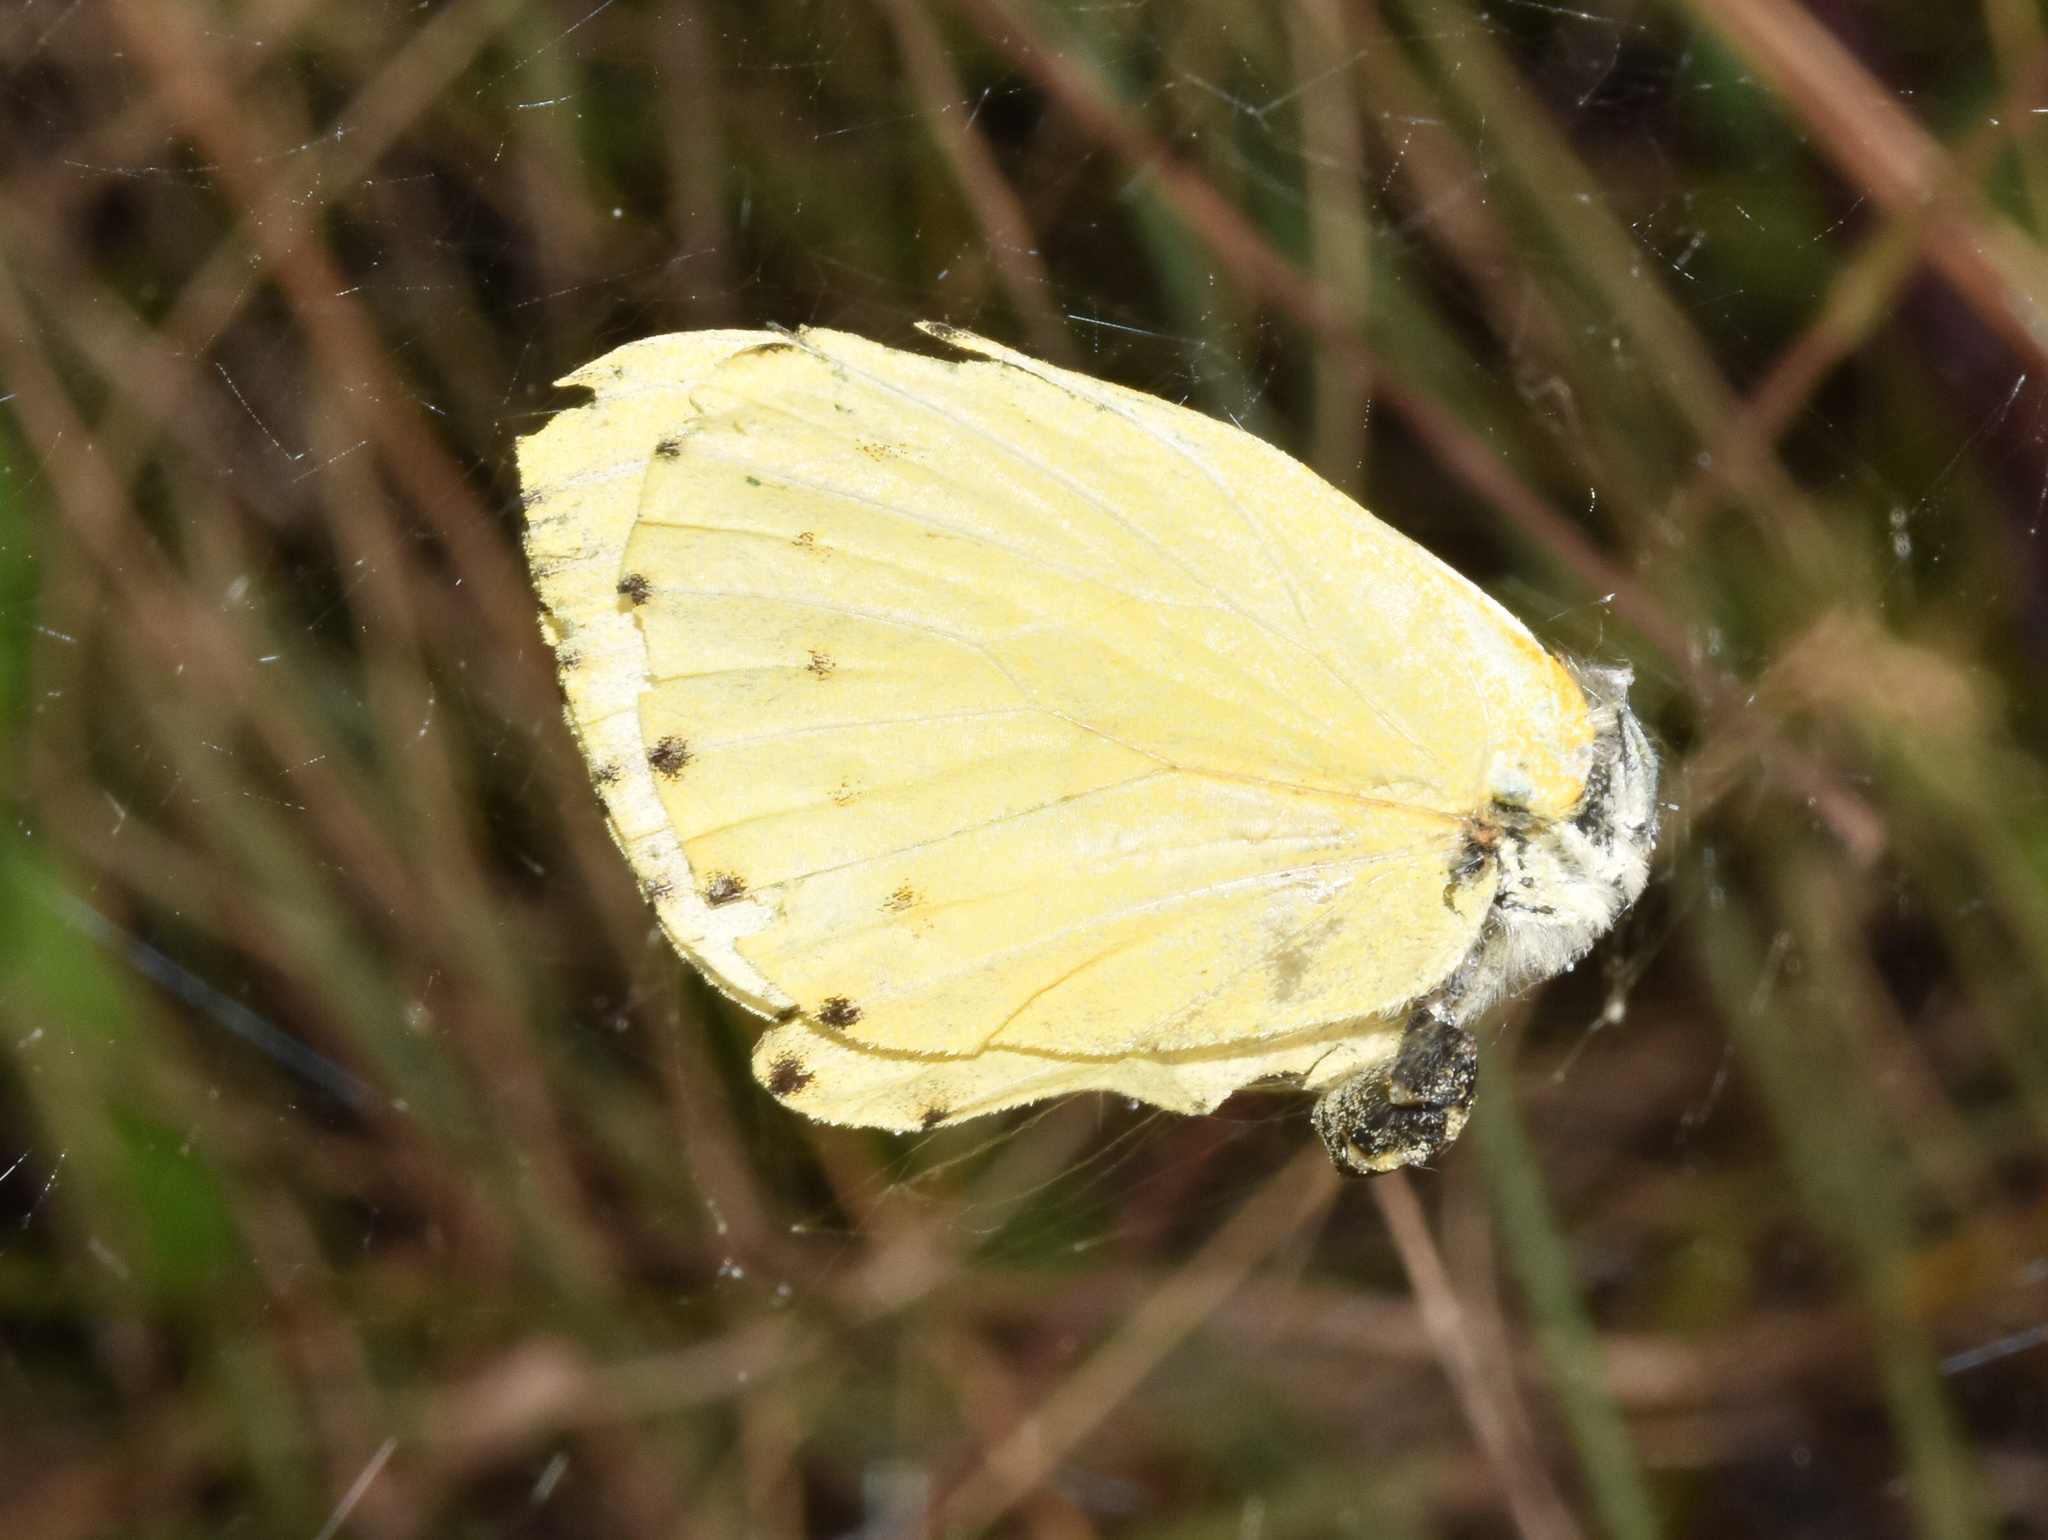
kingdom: Animalia
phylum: Arthropoda
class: Insecta
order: Lepidoptera
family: Pieridae
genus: Dixeia
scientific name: Dixeia pigea
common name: Ant-heap small white
